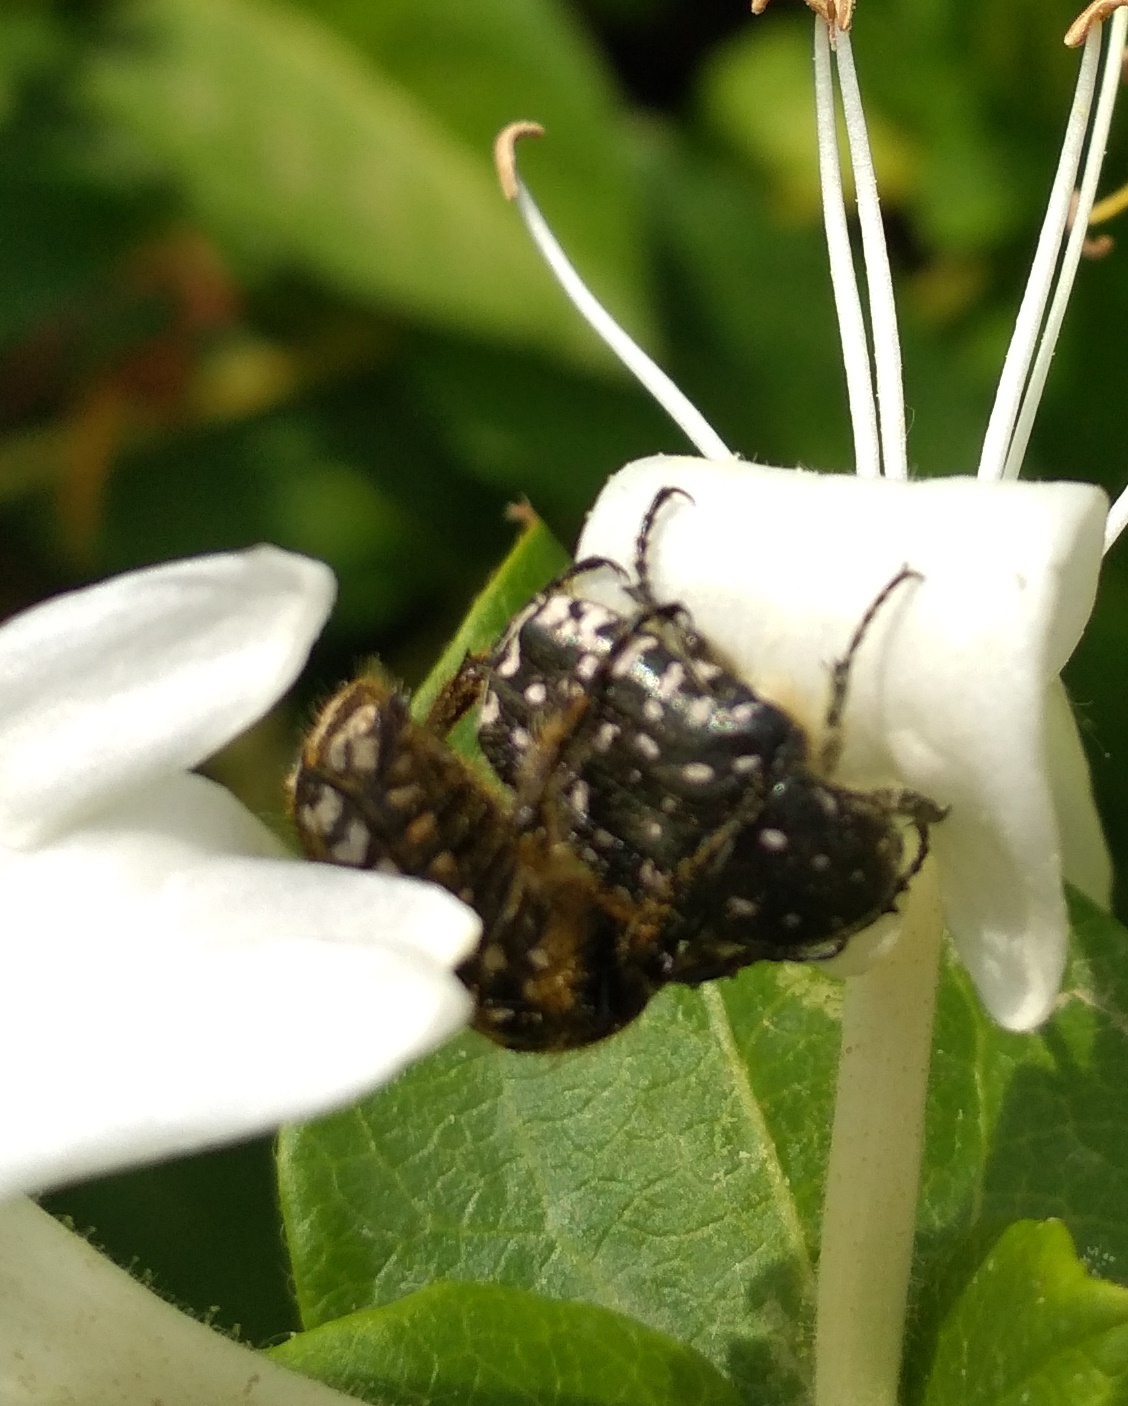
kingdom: Animalia
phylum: Arthropoda
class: Insecta
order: Coleoptera
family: Scarabaeidae
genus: Oxythyrea
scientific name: Oxythyrea funesta
